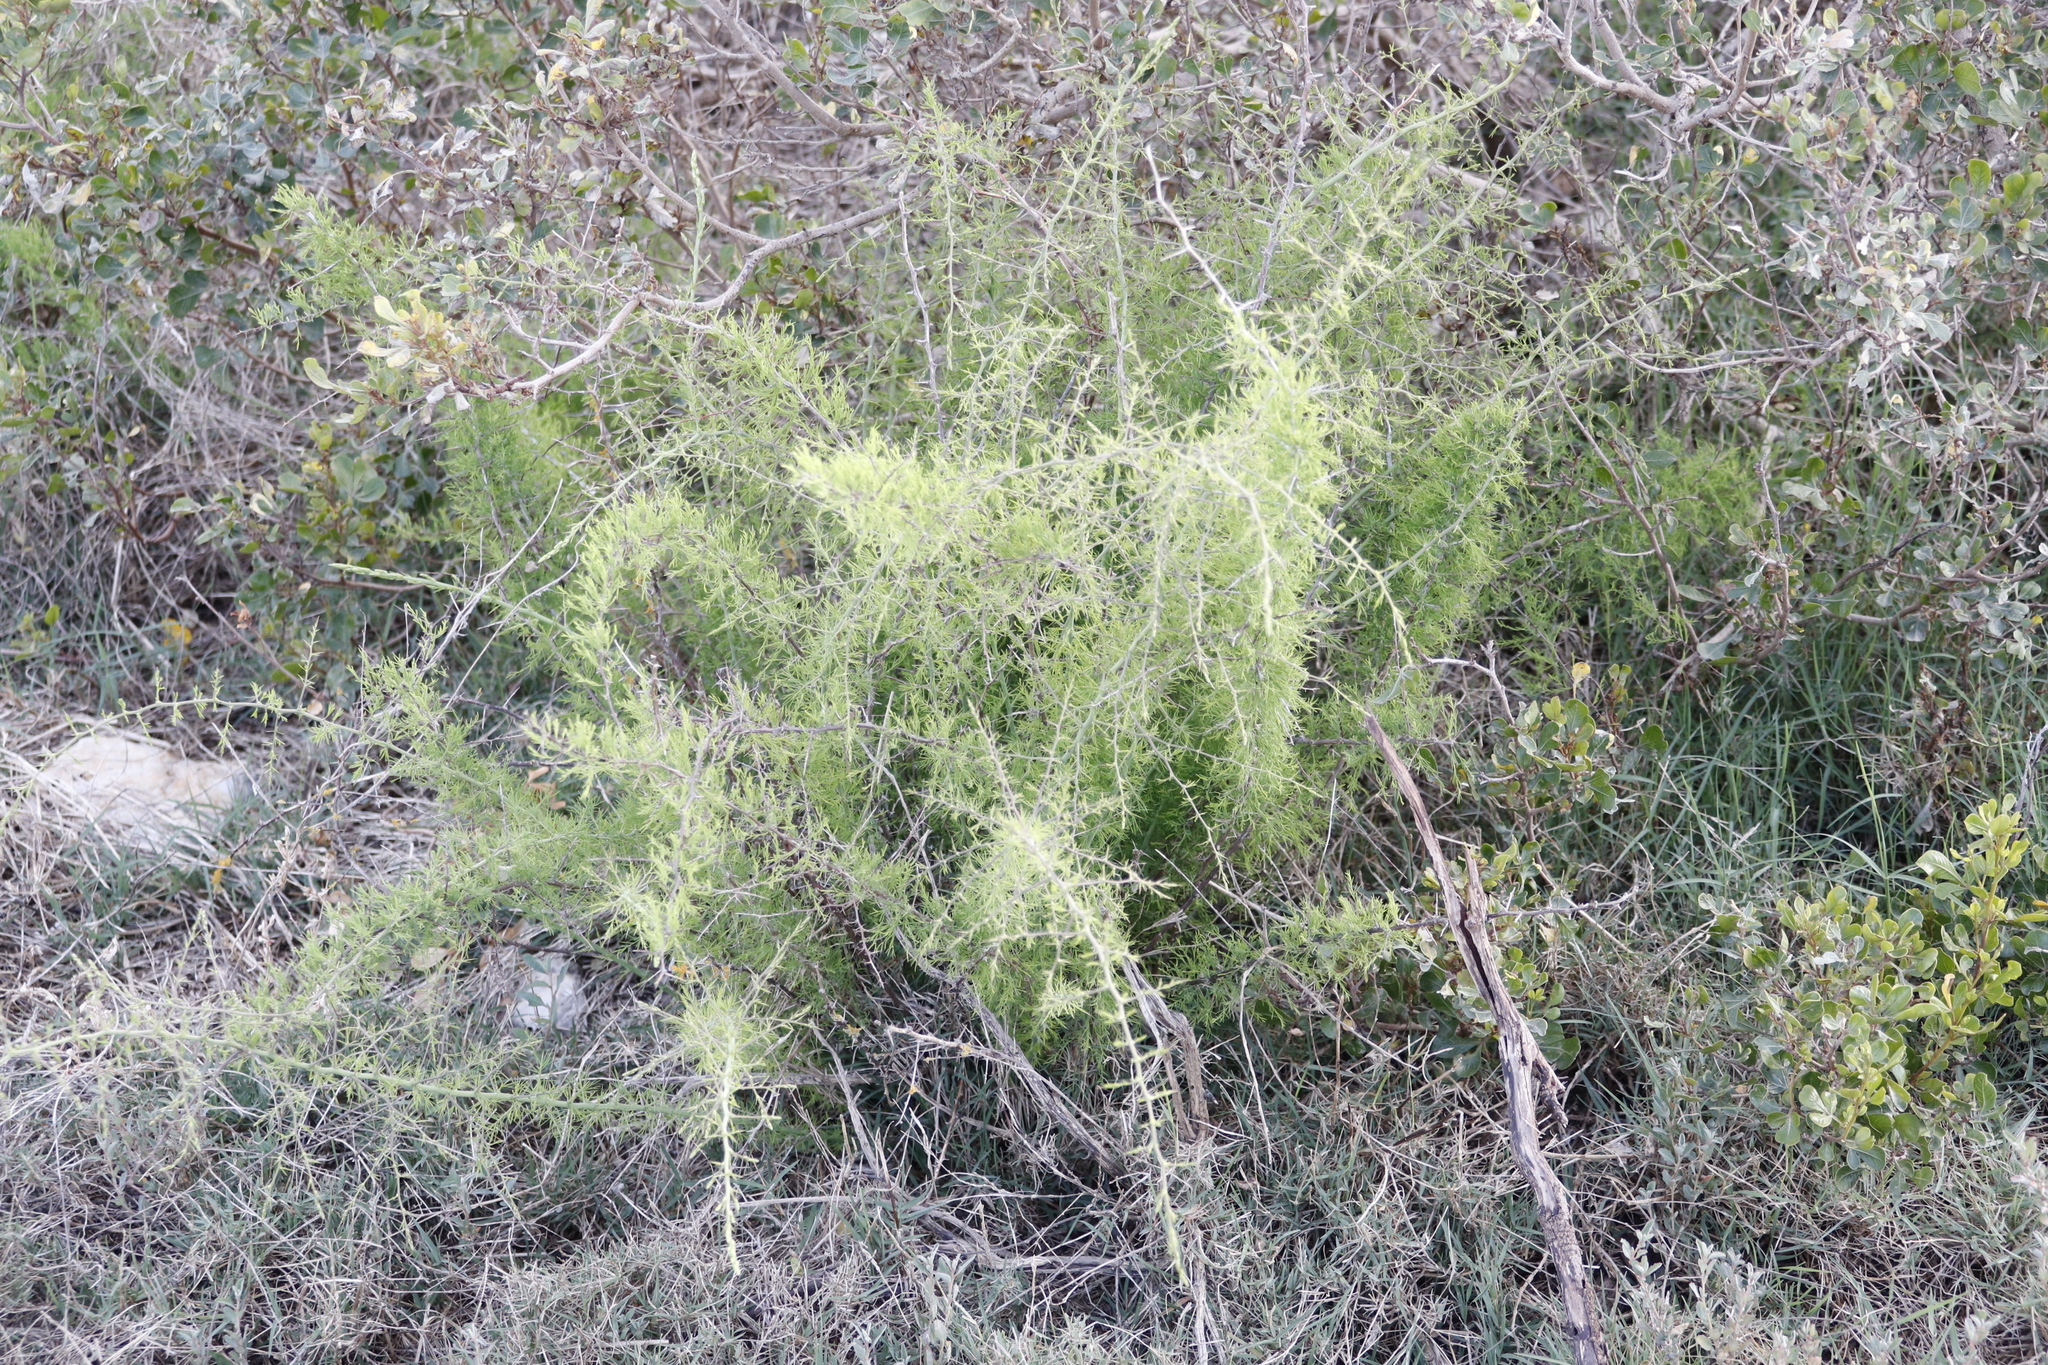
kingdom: Plantae
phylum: Tracheophyta
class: Liliopsida
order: Asparagales
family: Asparagaceae
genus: Asparagus
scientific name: Asparagus suaveolens
